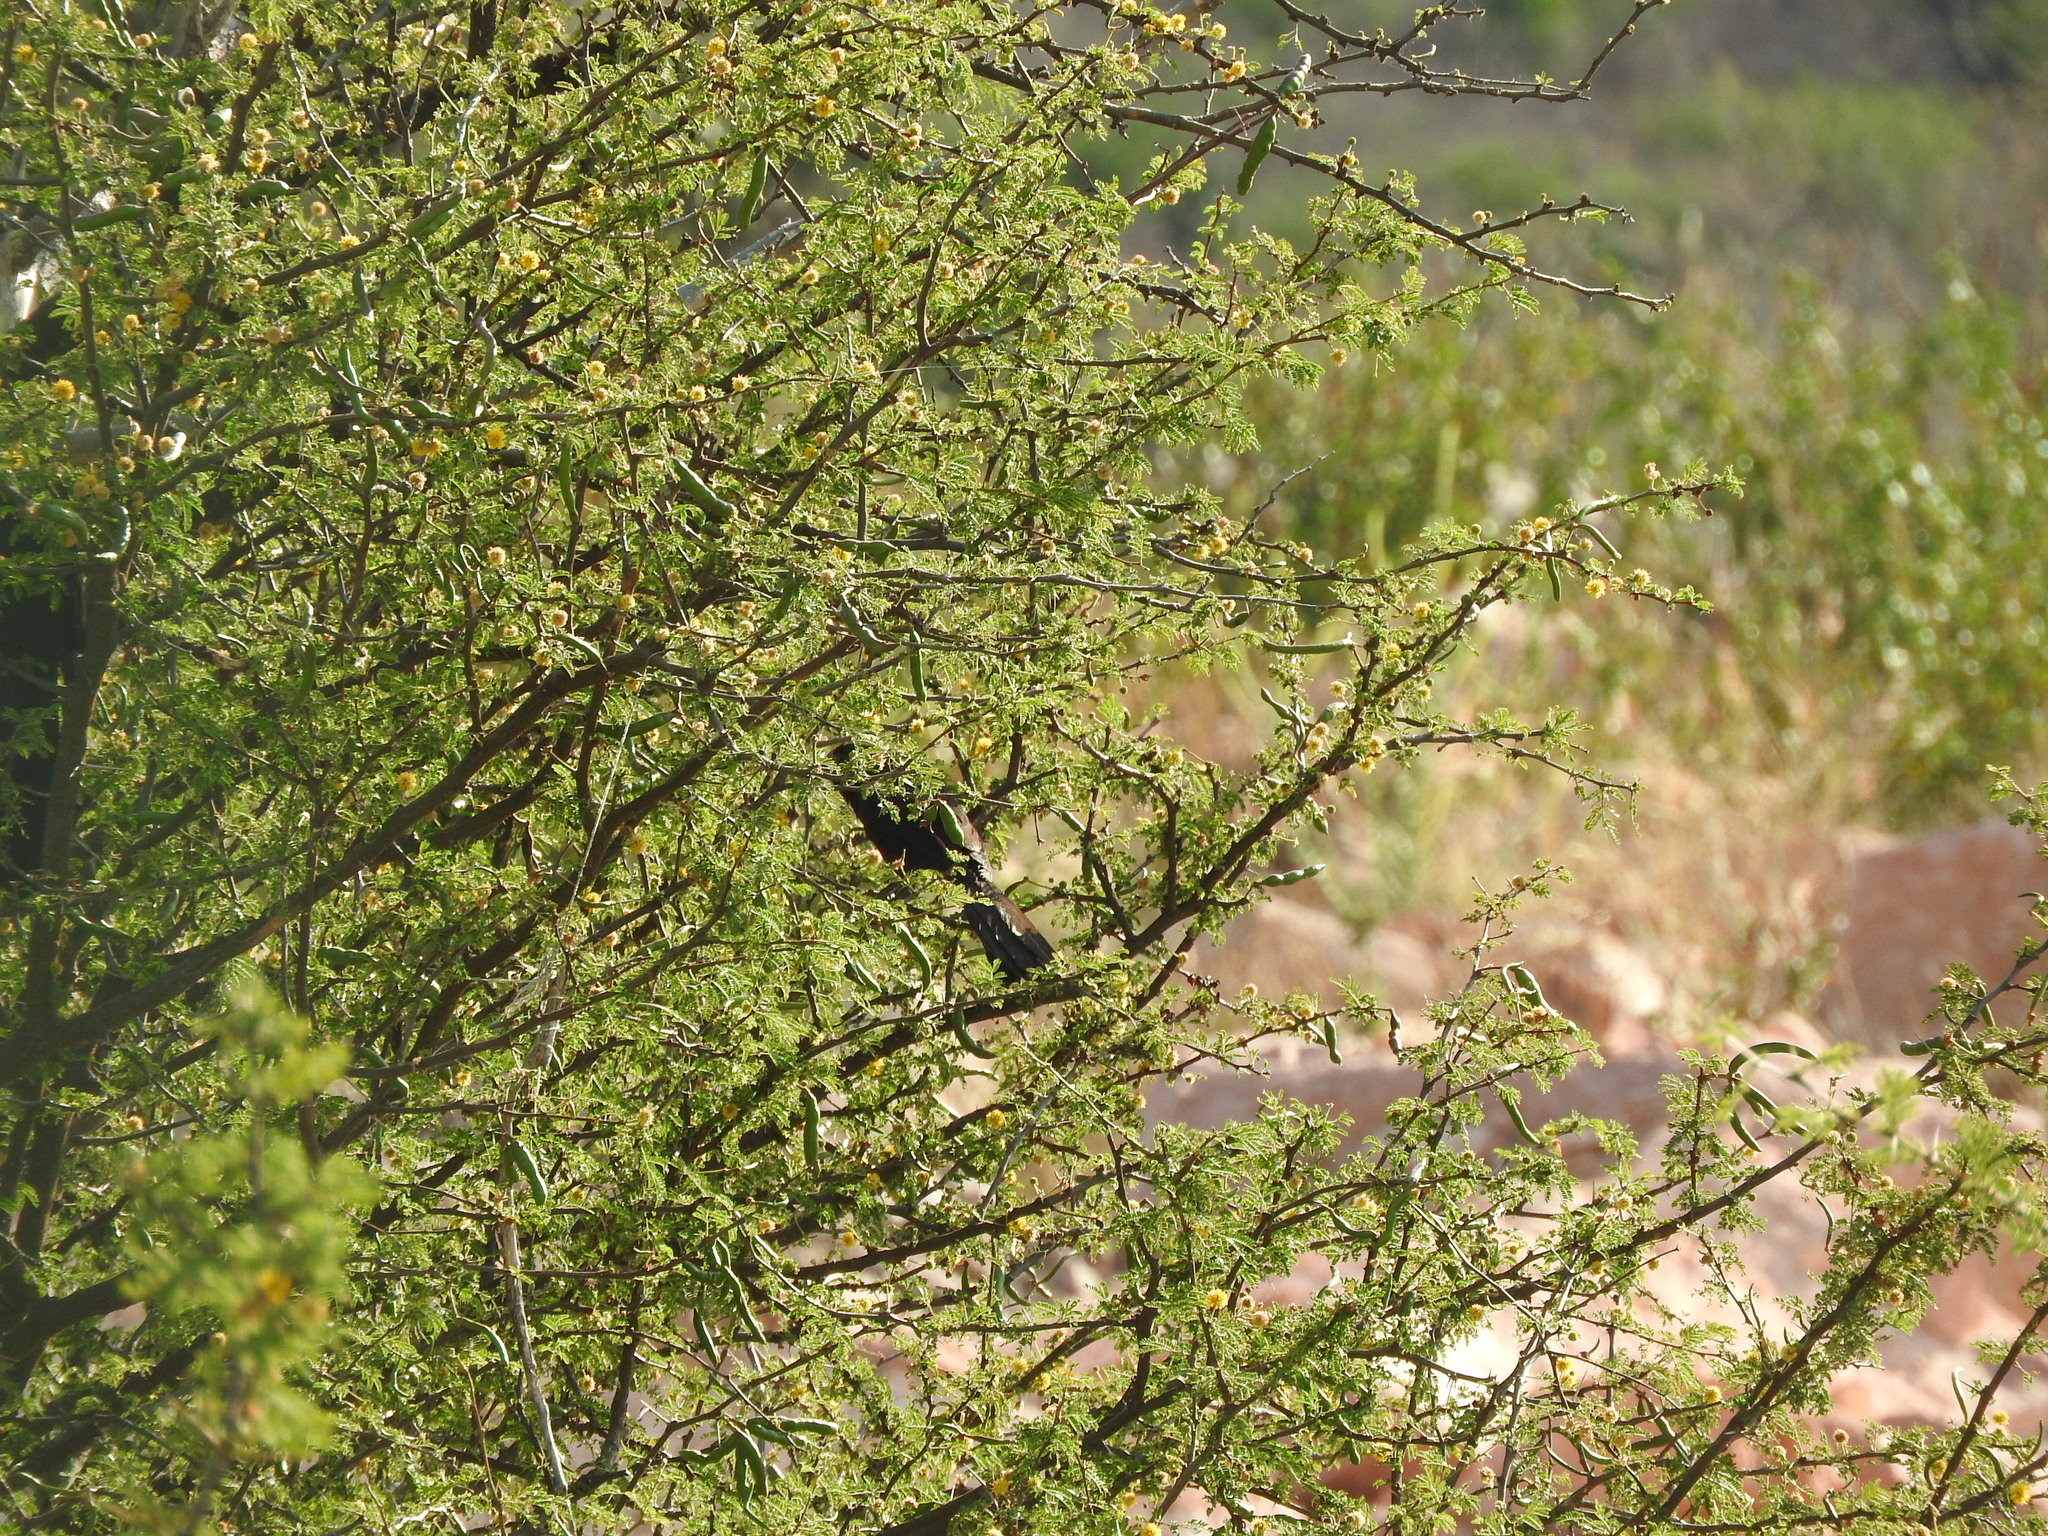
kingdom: Plantae
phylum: Tracheophyta
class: Magnoliopsida
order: Fabales
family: Fabaceae
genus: Vachellia
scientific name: Vachellia farnesiana
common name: Sweet acacia
